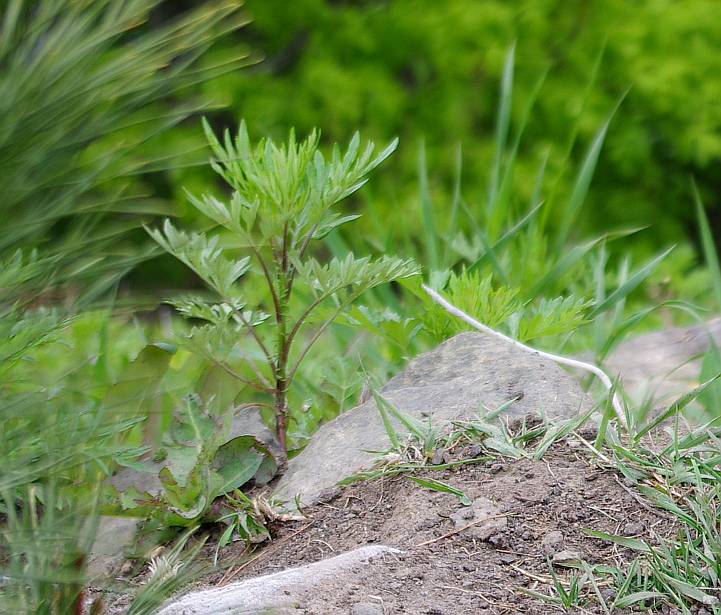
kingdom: Plantae
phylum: Tracheophyta
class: Magnoliopsida
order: Asterales
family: Asteraceae
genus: Artemisia
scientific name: Artemisia rubripes
